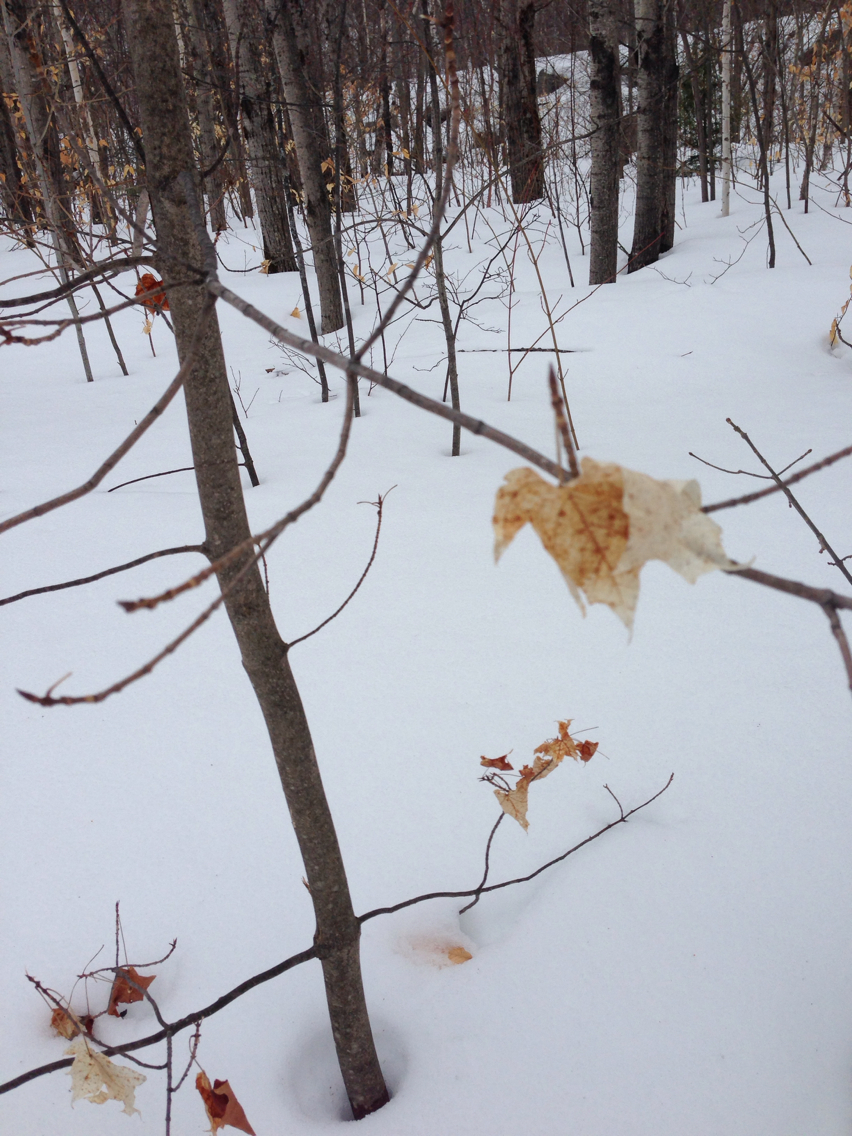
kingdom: Plantae
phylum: Tracheophyta
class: Magnoliopsida
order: Sapindales
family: Sapindaceae
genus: Acer
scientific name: Acer saccharum
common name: Sugar maple
